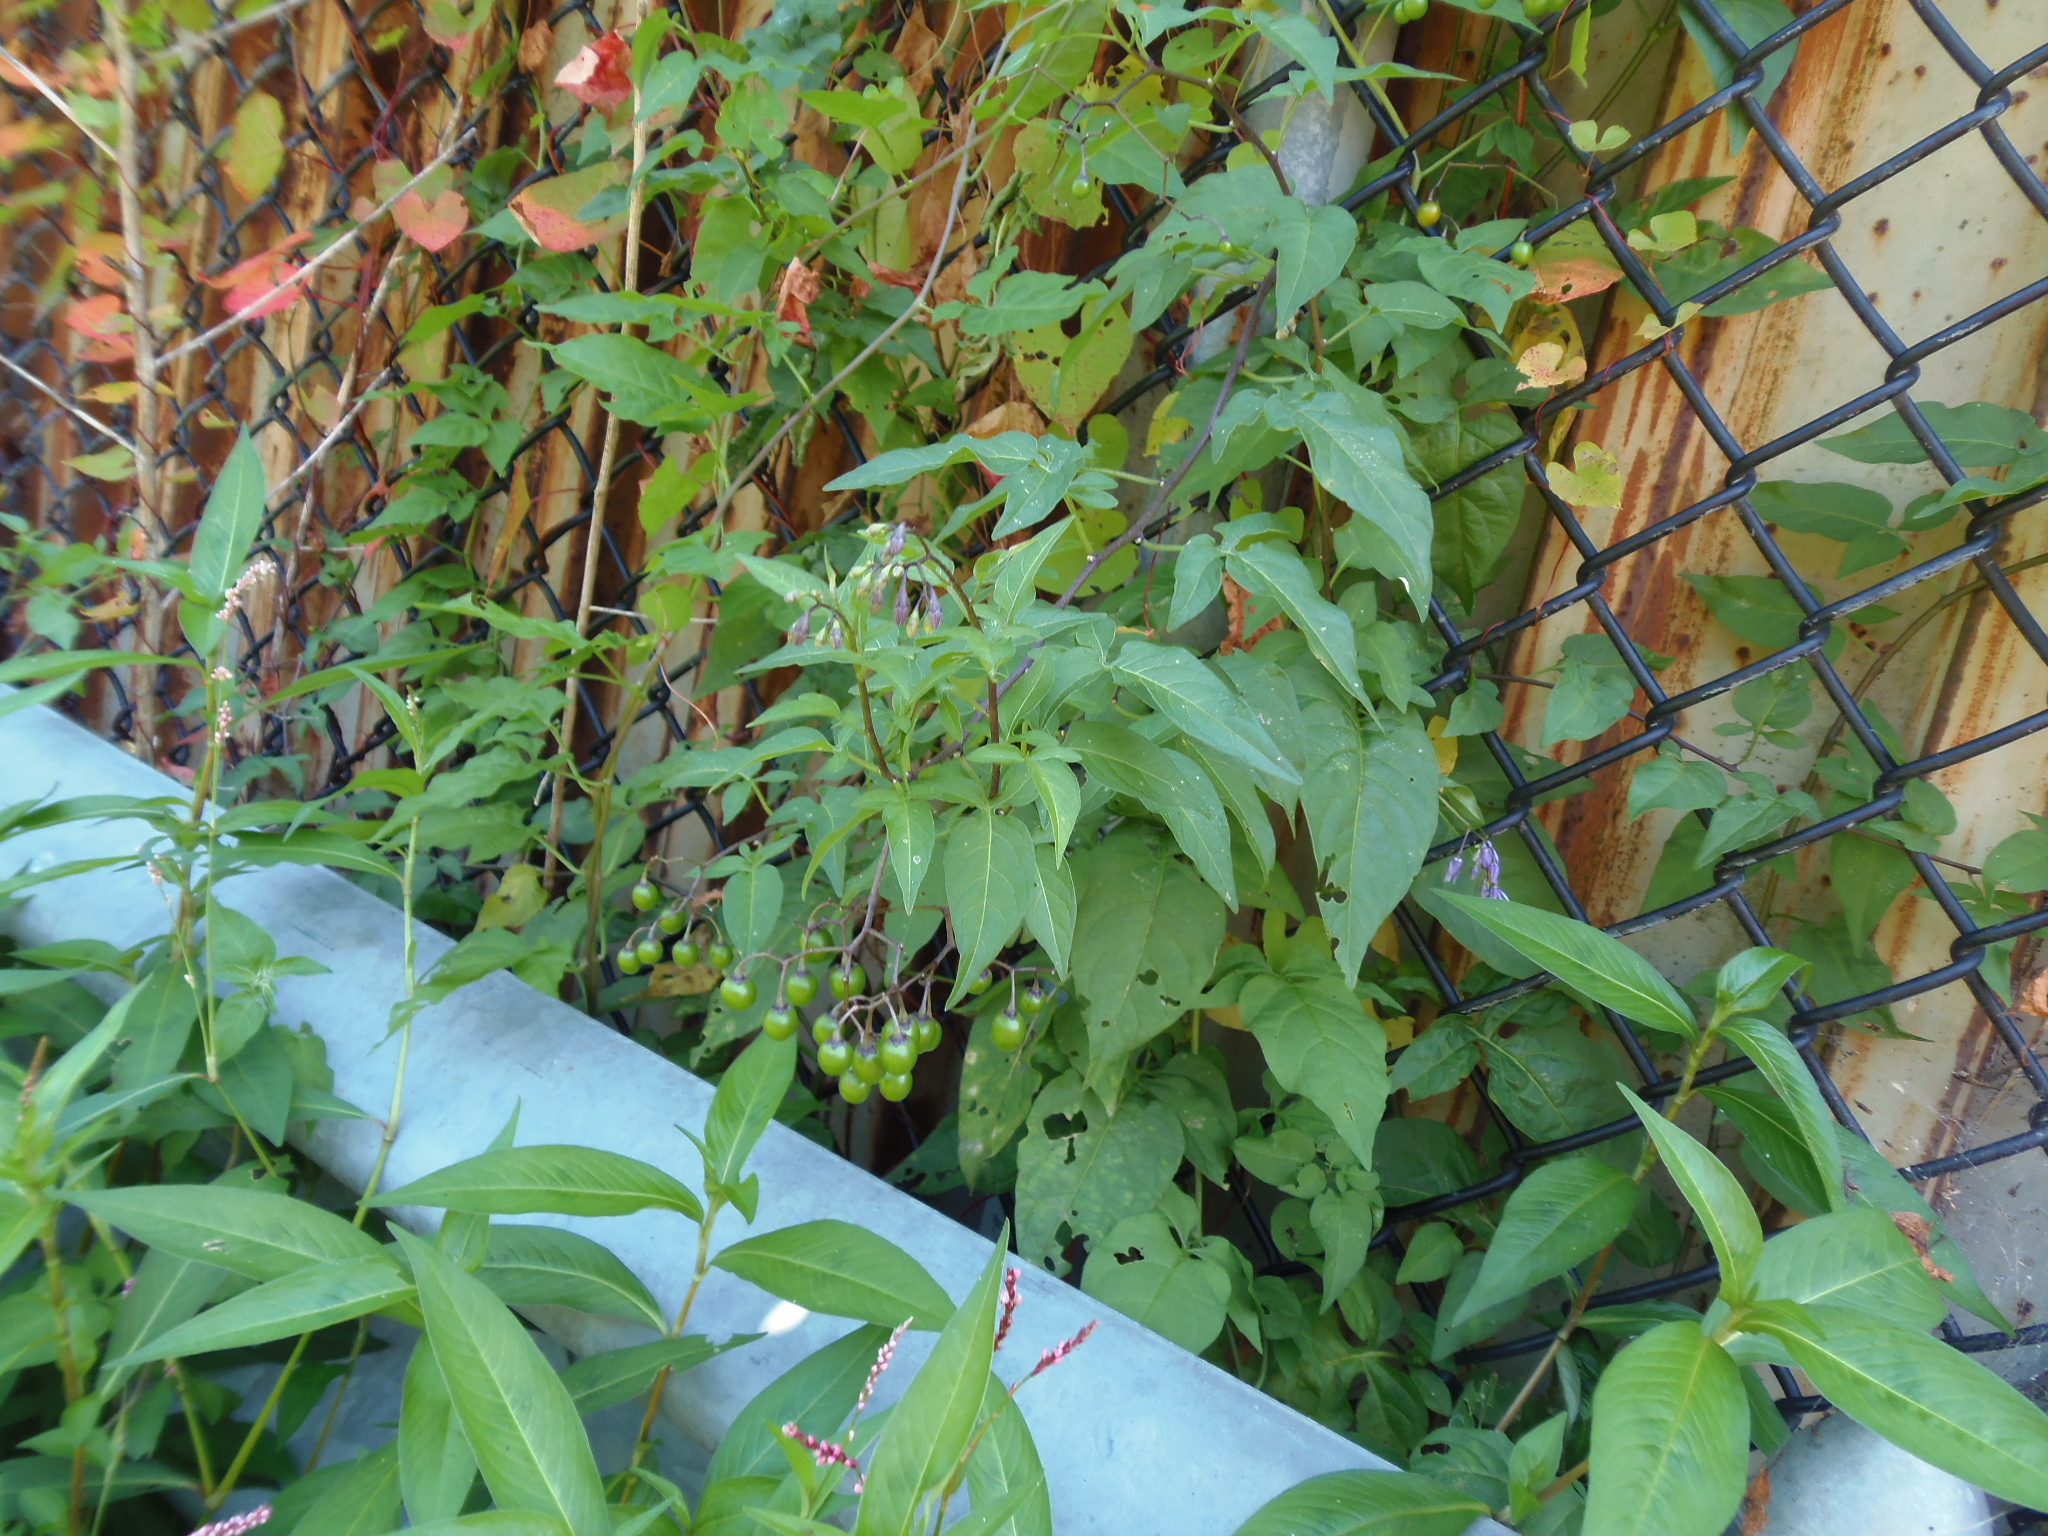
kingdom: Plantae
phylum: Tracheophyta
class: Magnoliopsida
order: Solanales
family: Solanaceae
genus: Solanum
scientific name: Solanum dulcamara
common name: Climbing nightshade
